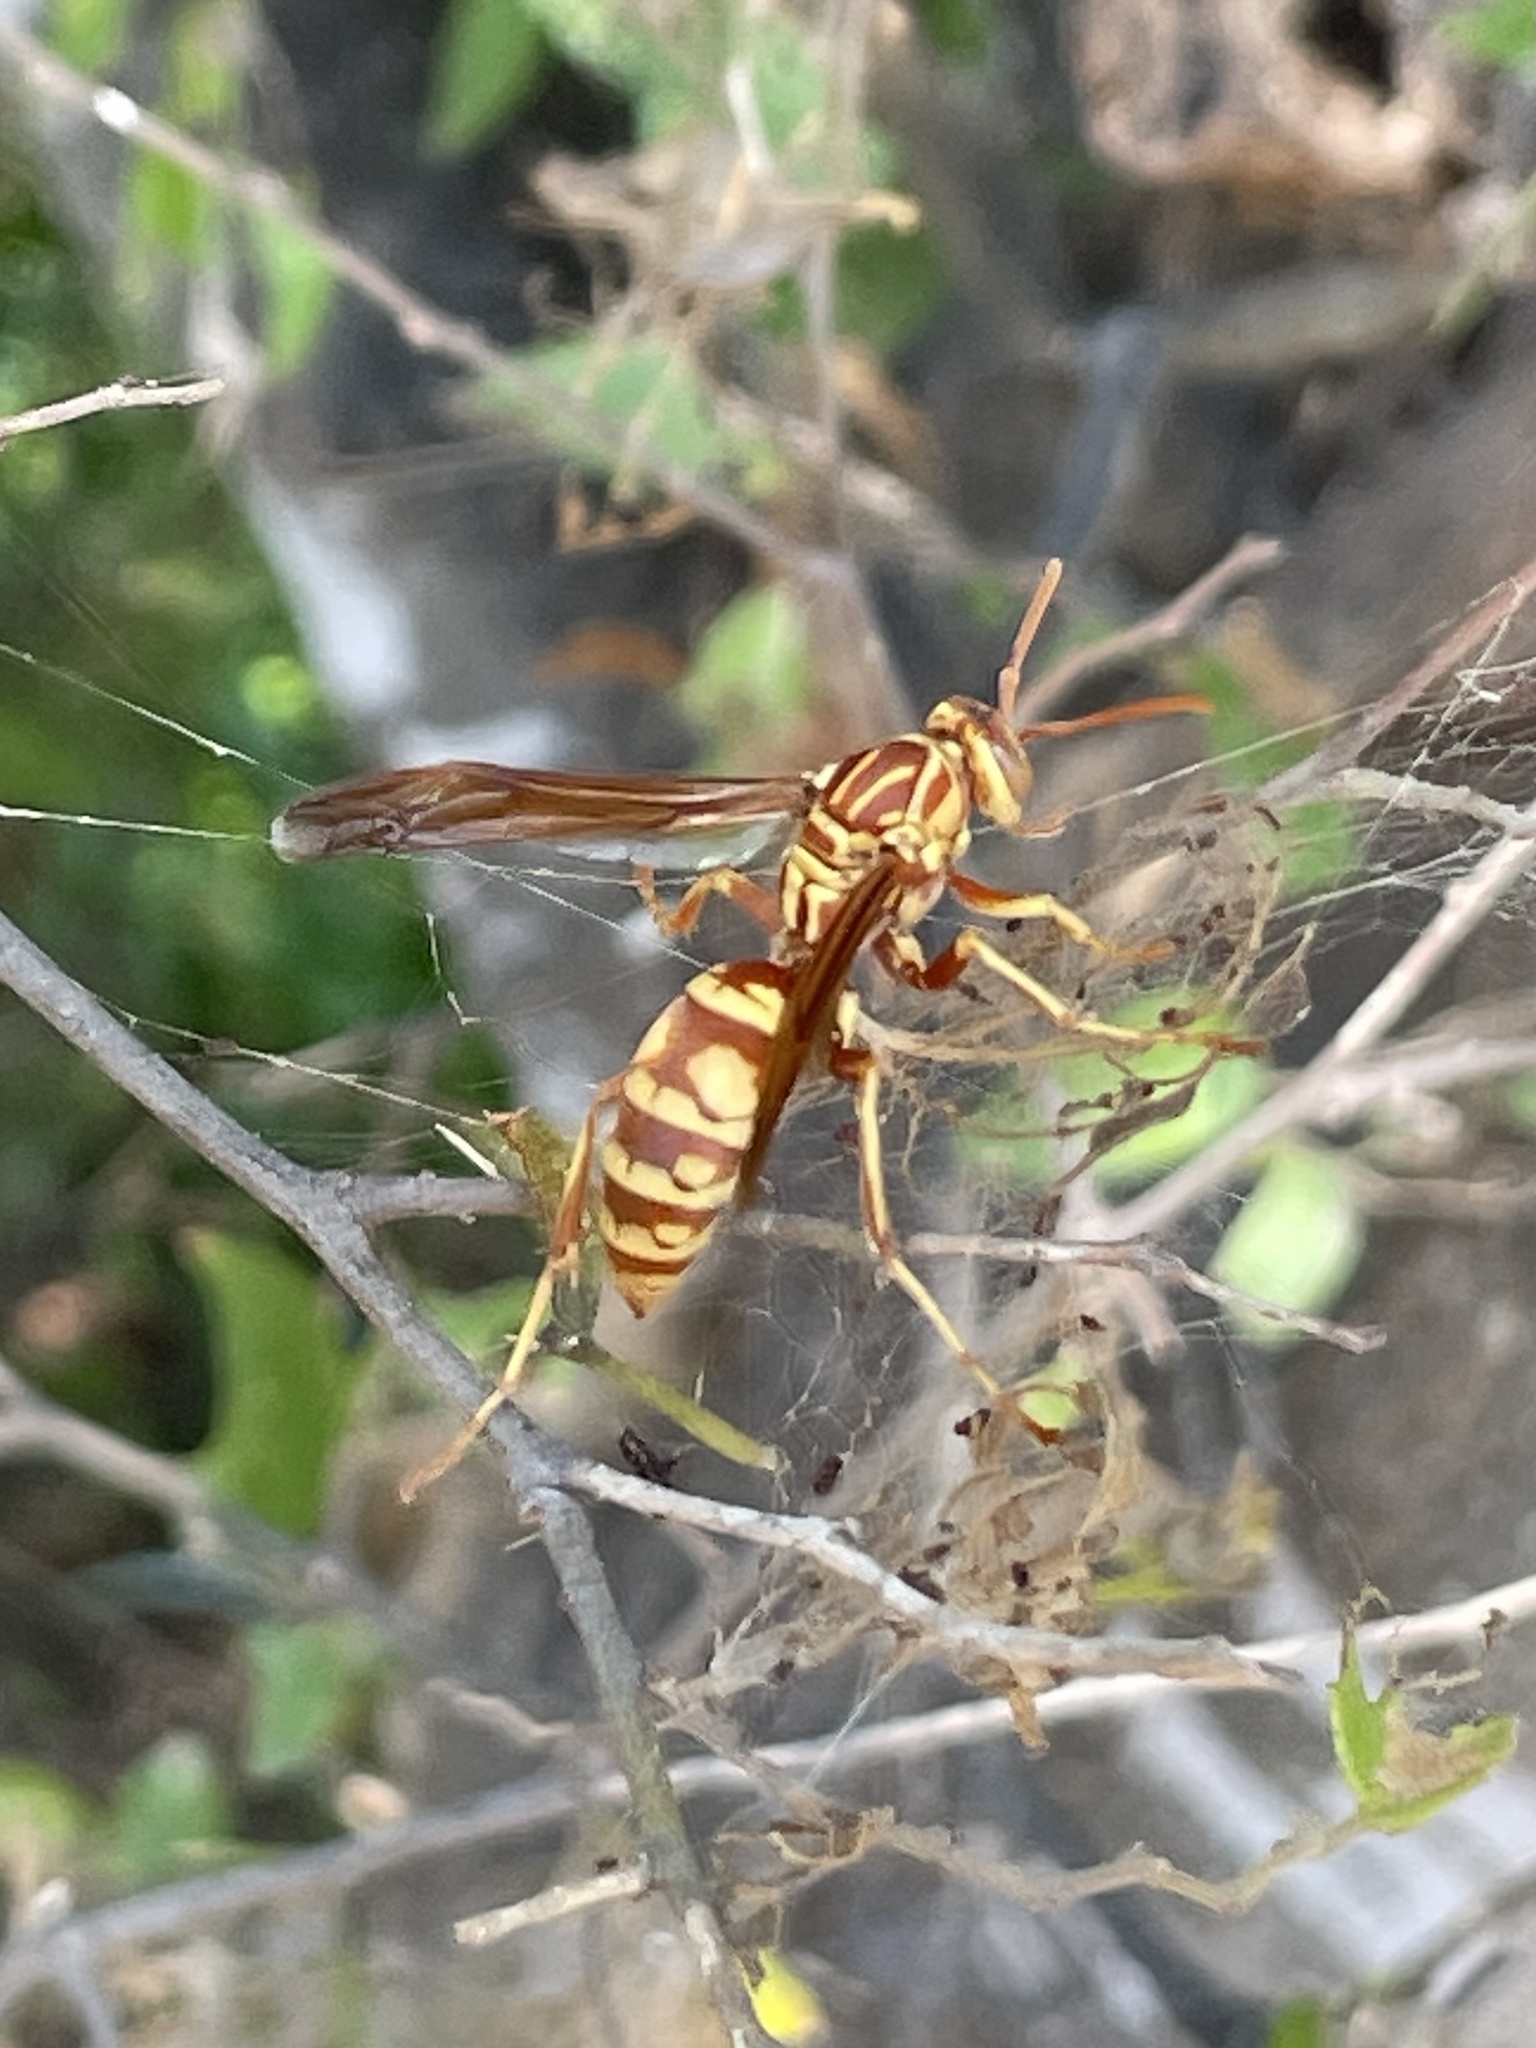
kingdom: Animalia
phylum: Arthropoda
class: Insecta
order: Hymenoptera
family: Eumenidae
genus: Polistes
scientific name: Polistes apachus
